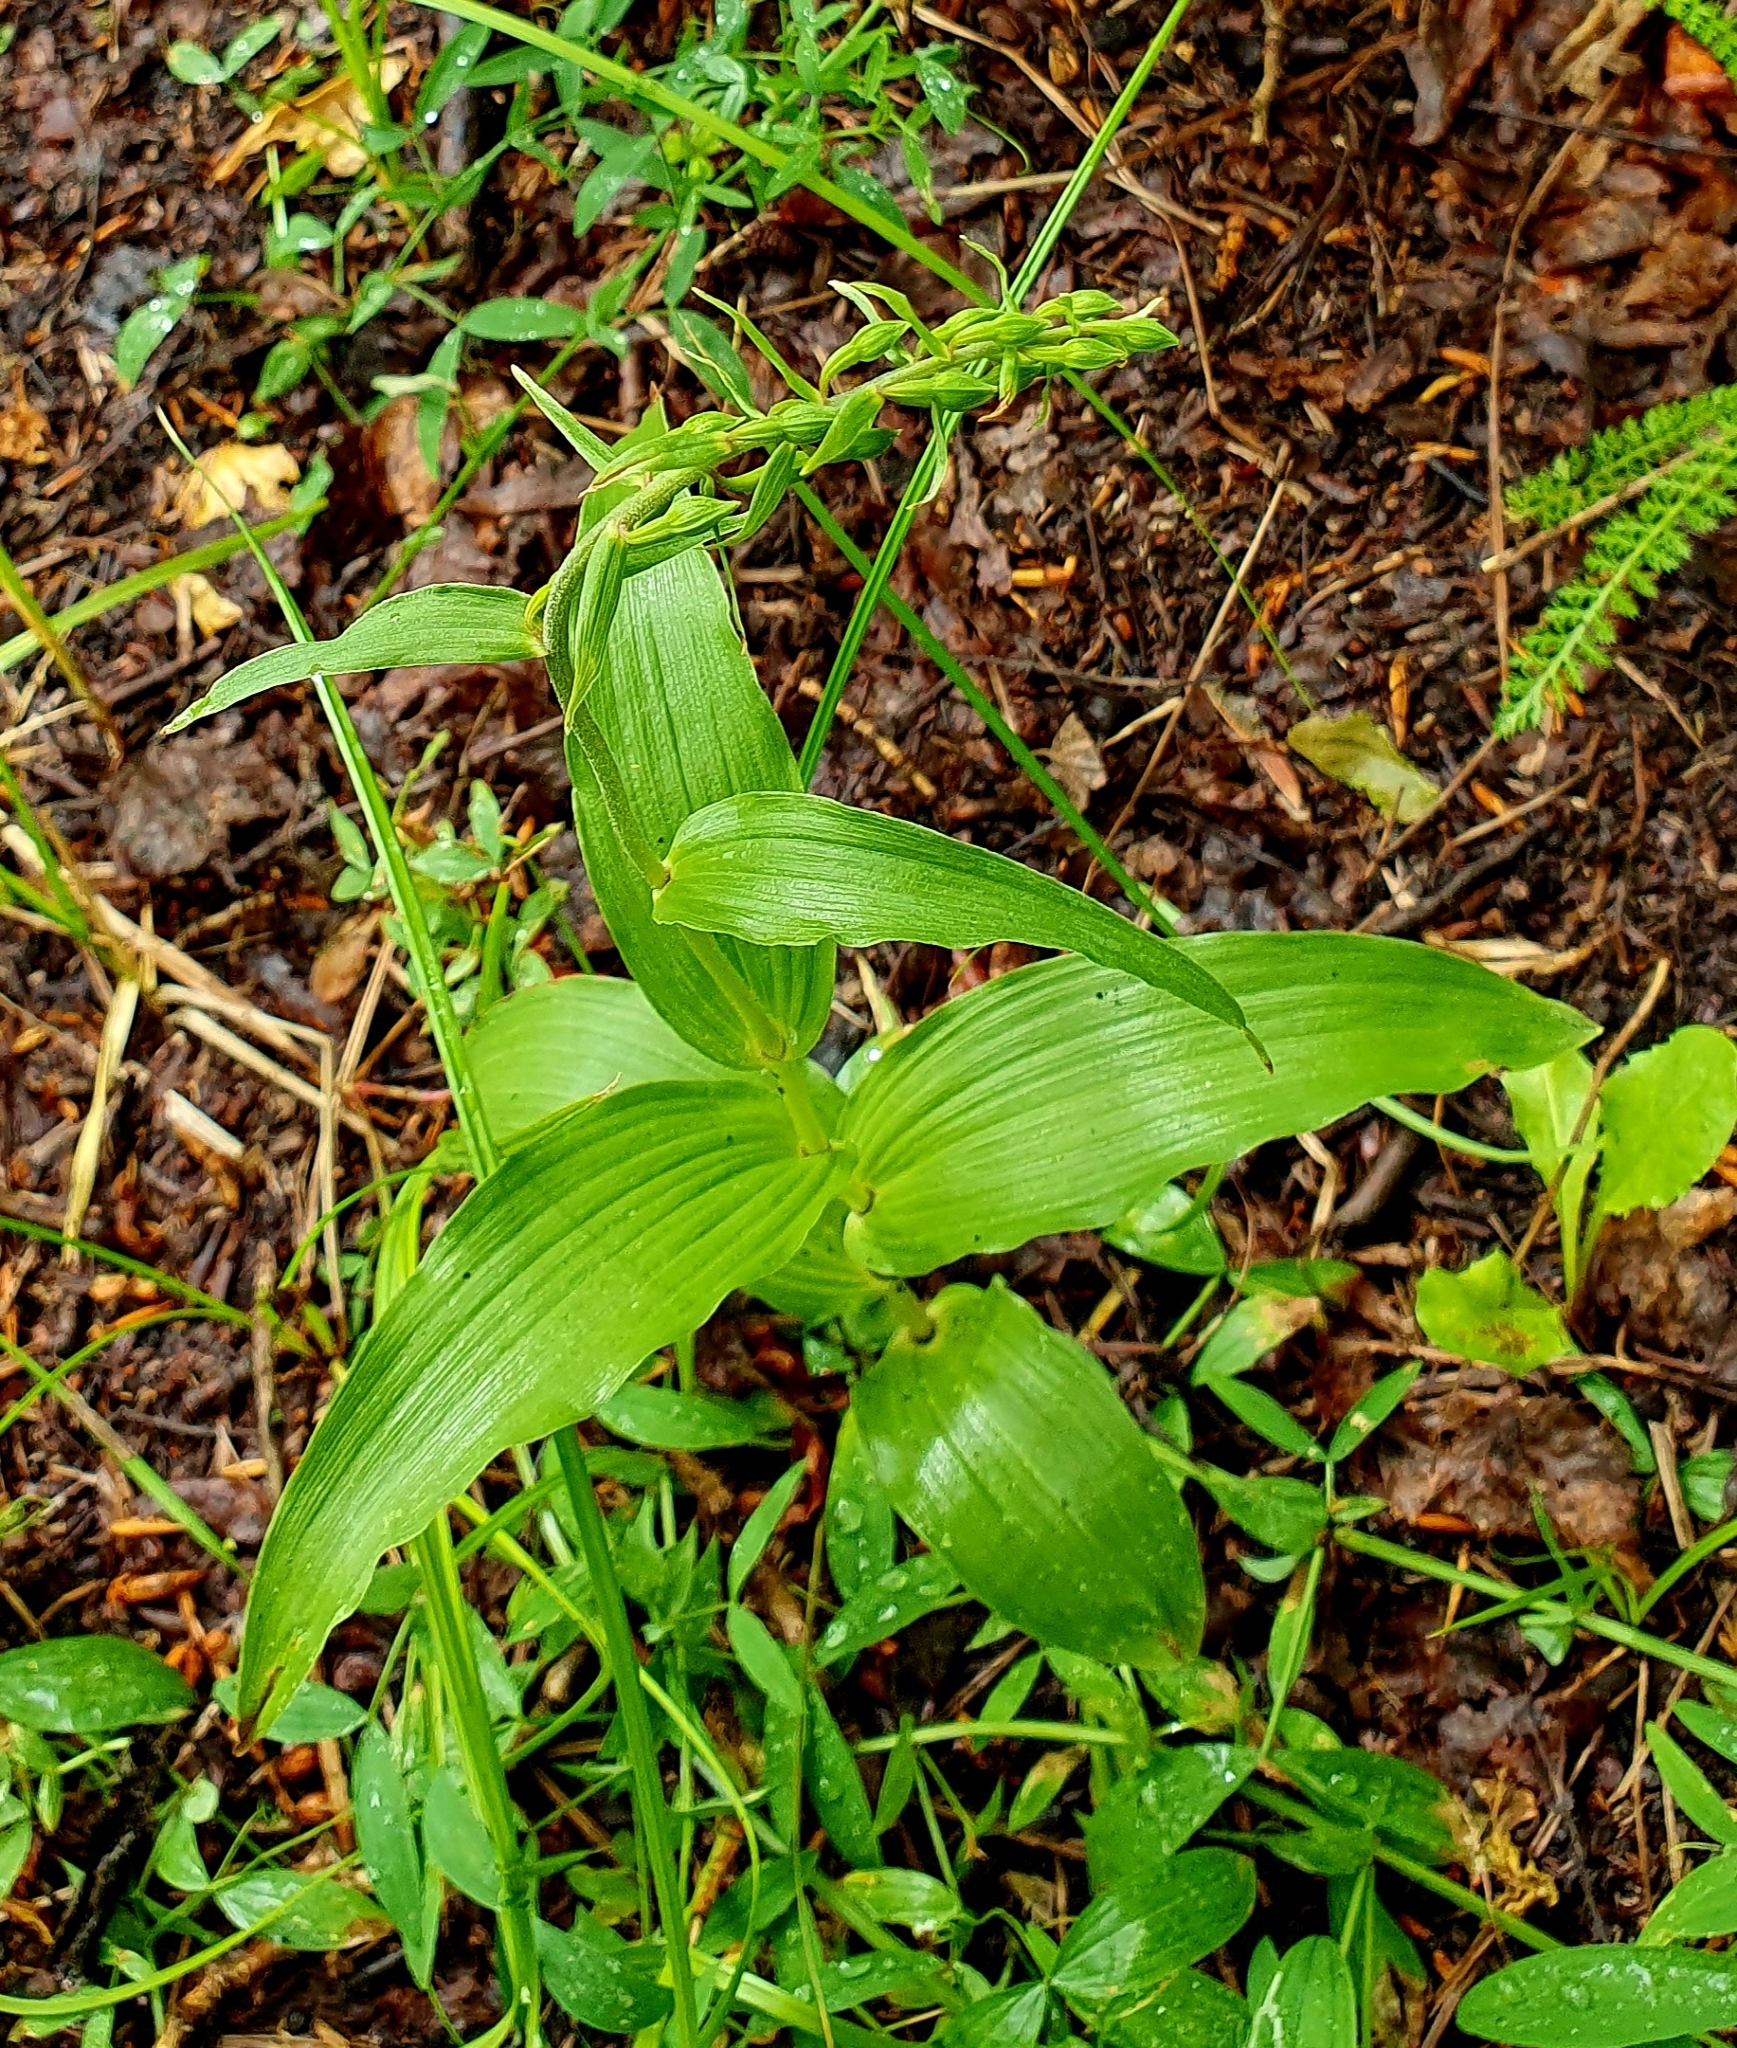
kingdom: Plantae
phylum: Tracheophyta
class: Liliopsida
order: Asparagales
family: Orchidaceae
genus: Epipactis
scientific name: Epipactis helleborine
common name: Broad-leaved helleborine
